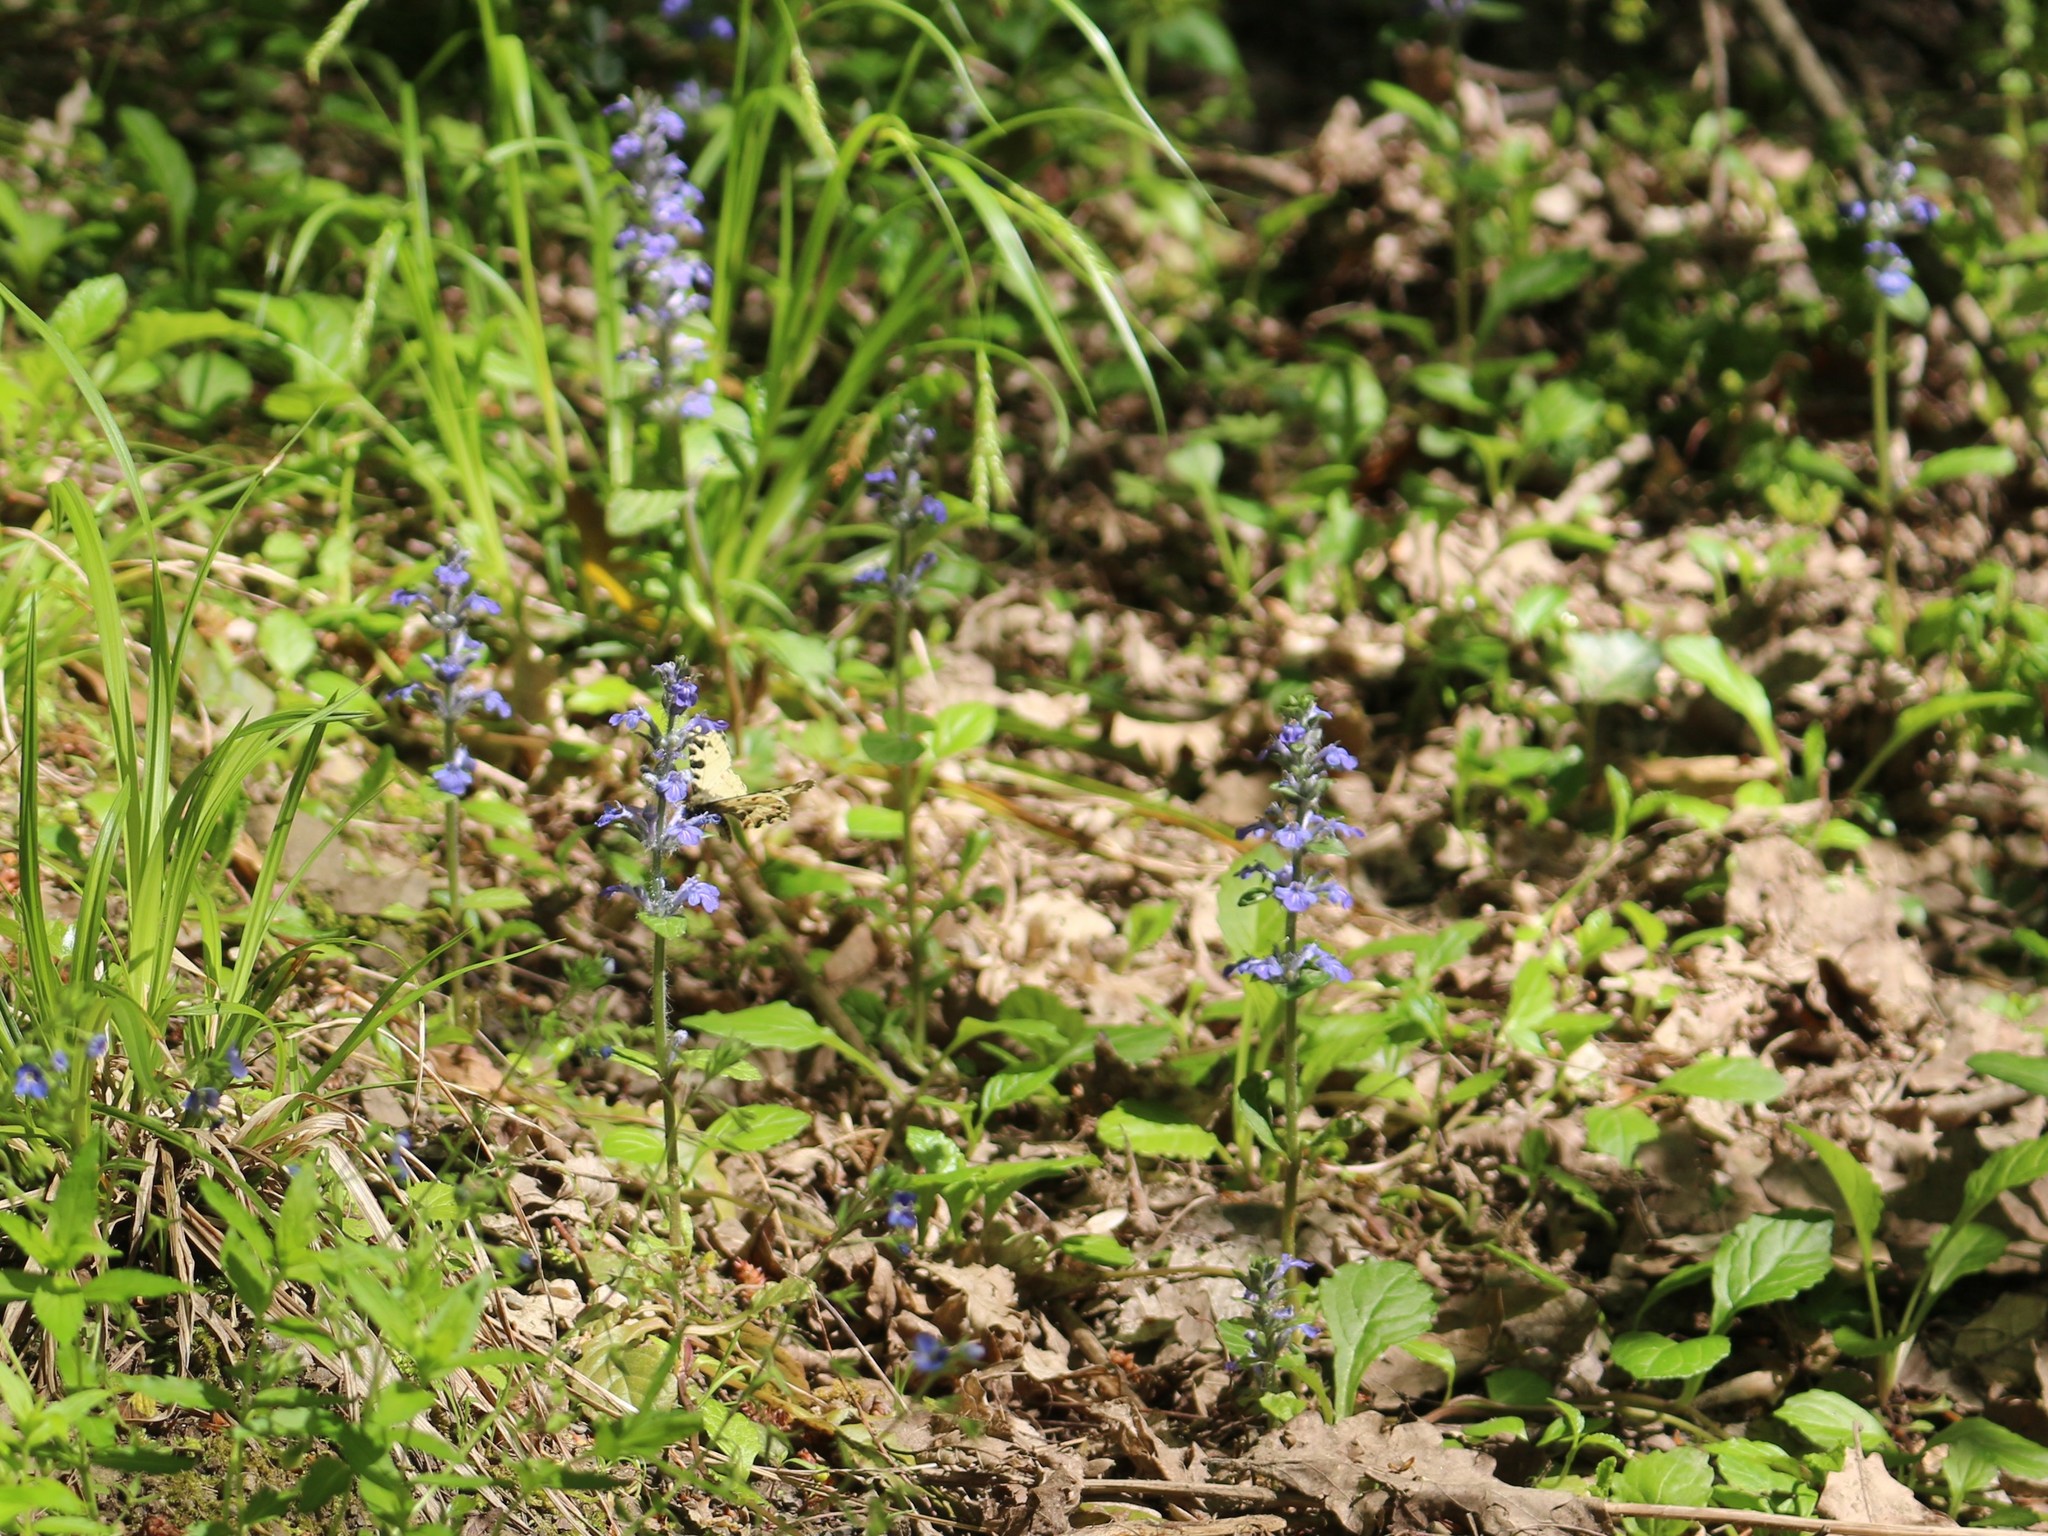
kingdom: Plantae
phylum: Tracheophyta
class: Magnoliopsida
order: Lamiales
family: Lamiaceae
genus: Ajuga
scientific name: Ajuga reptans
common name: Bugle
